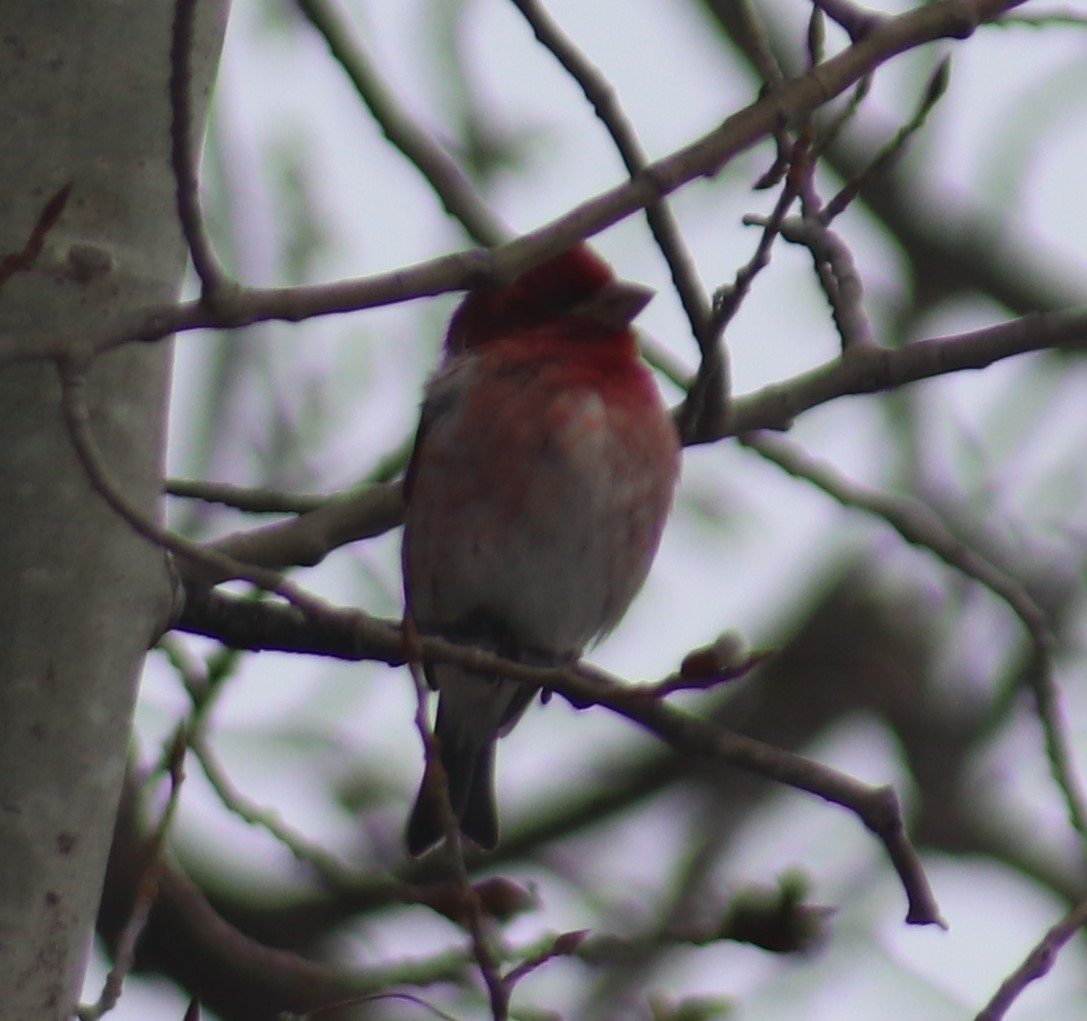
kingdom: Animalia
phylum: Chordata
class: Aves
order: Passeriformes
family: Fringillidae
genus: Haemorhous
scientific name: Haemorhous purpureus
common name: Purple finch
